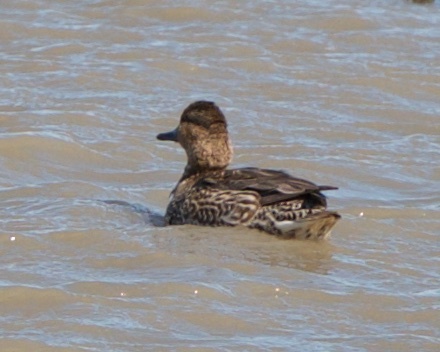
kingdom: Animalia
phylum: Chordata
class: Aves
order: Anseriformes
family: Anatidae
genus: Anas
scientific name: Anas crecca
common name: Eurasian teal
